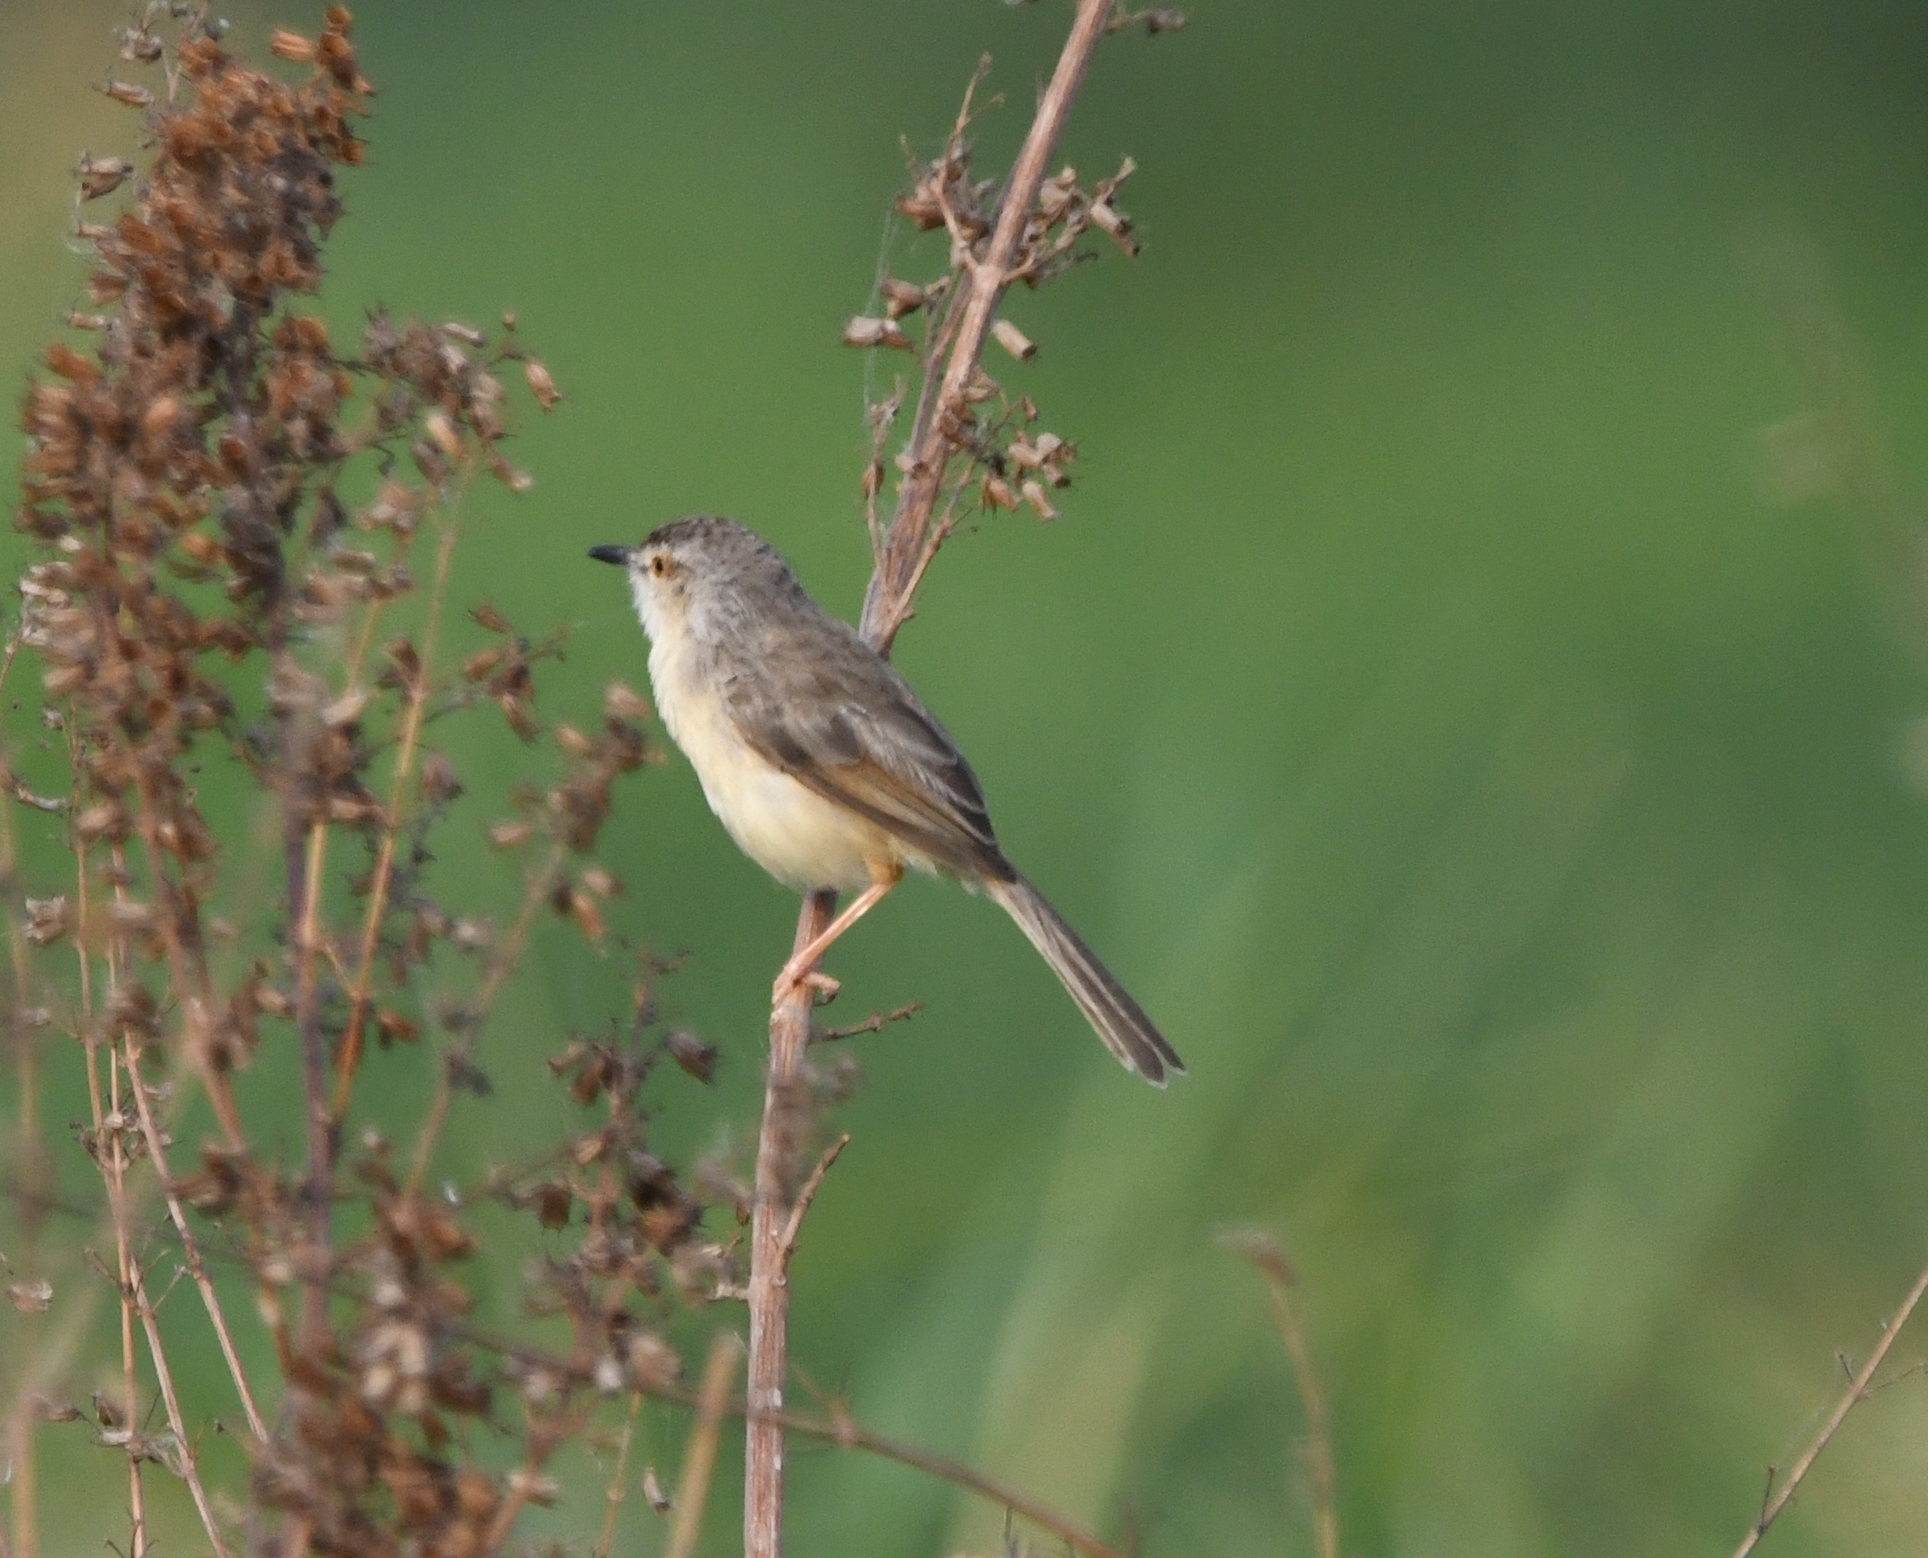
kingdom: Animalia
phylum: Chordata
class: Aves
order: Passeriformes
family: Cisticolidae
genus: Prinia
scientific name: Prinia hodgsonii
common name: Grey-breasted prinia
